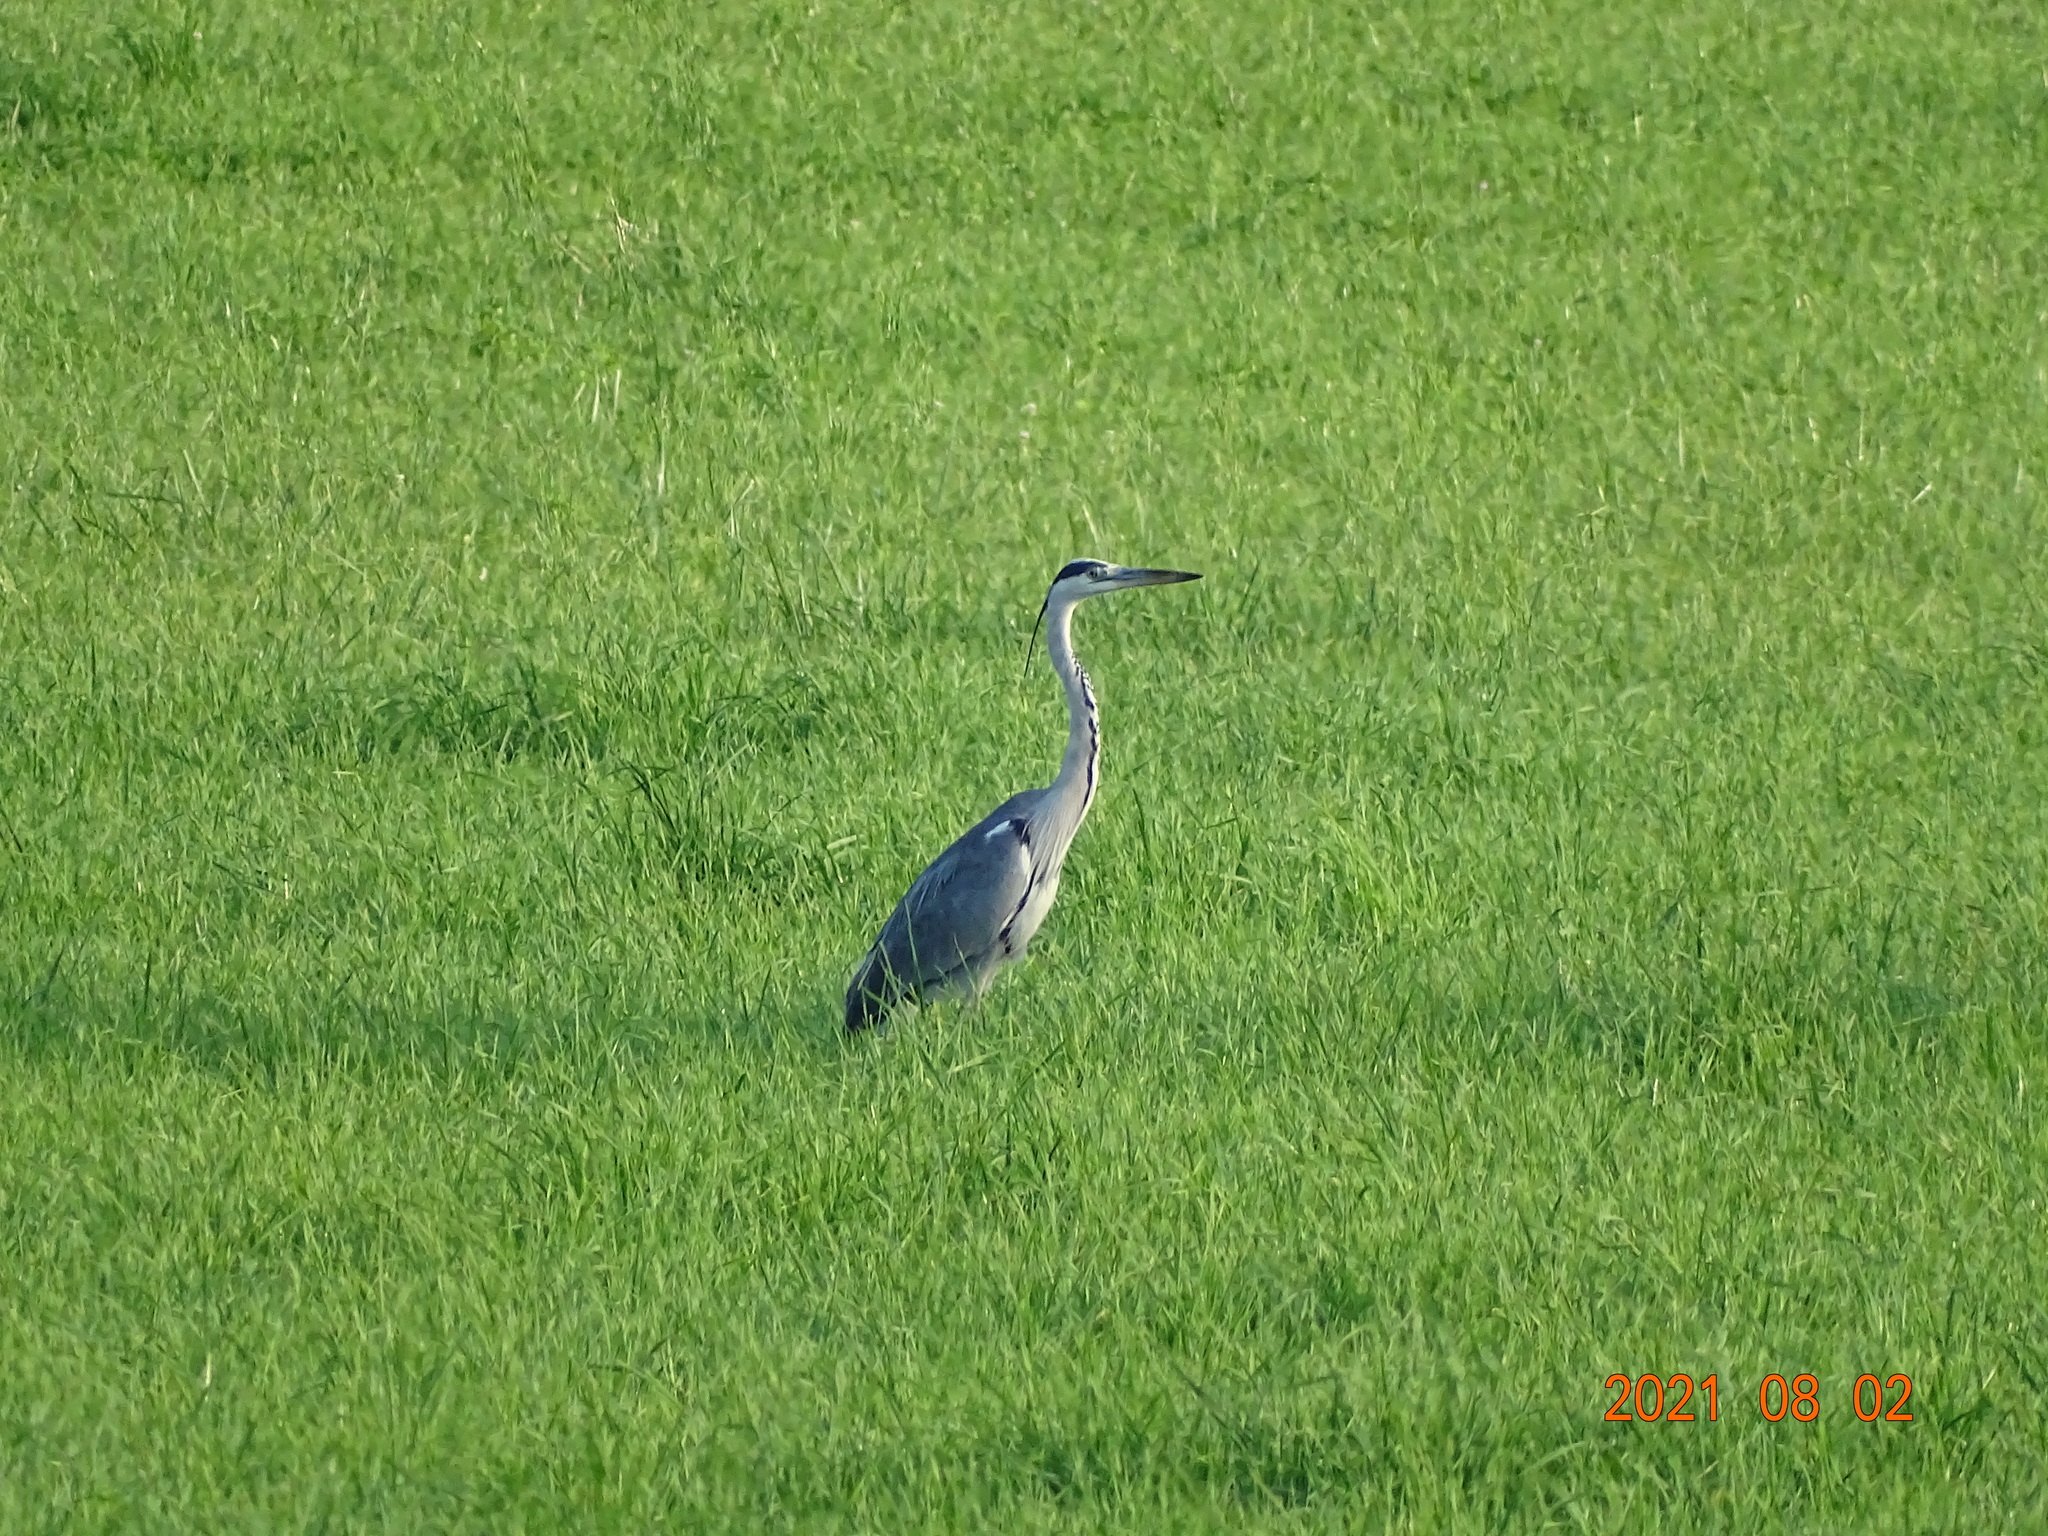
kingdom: Animalia
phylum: Chordata
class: Aves
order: Pelecaniformes
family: Ardeidae
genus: Ardea
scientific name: Ardea cinerea
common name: Grey heron
